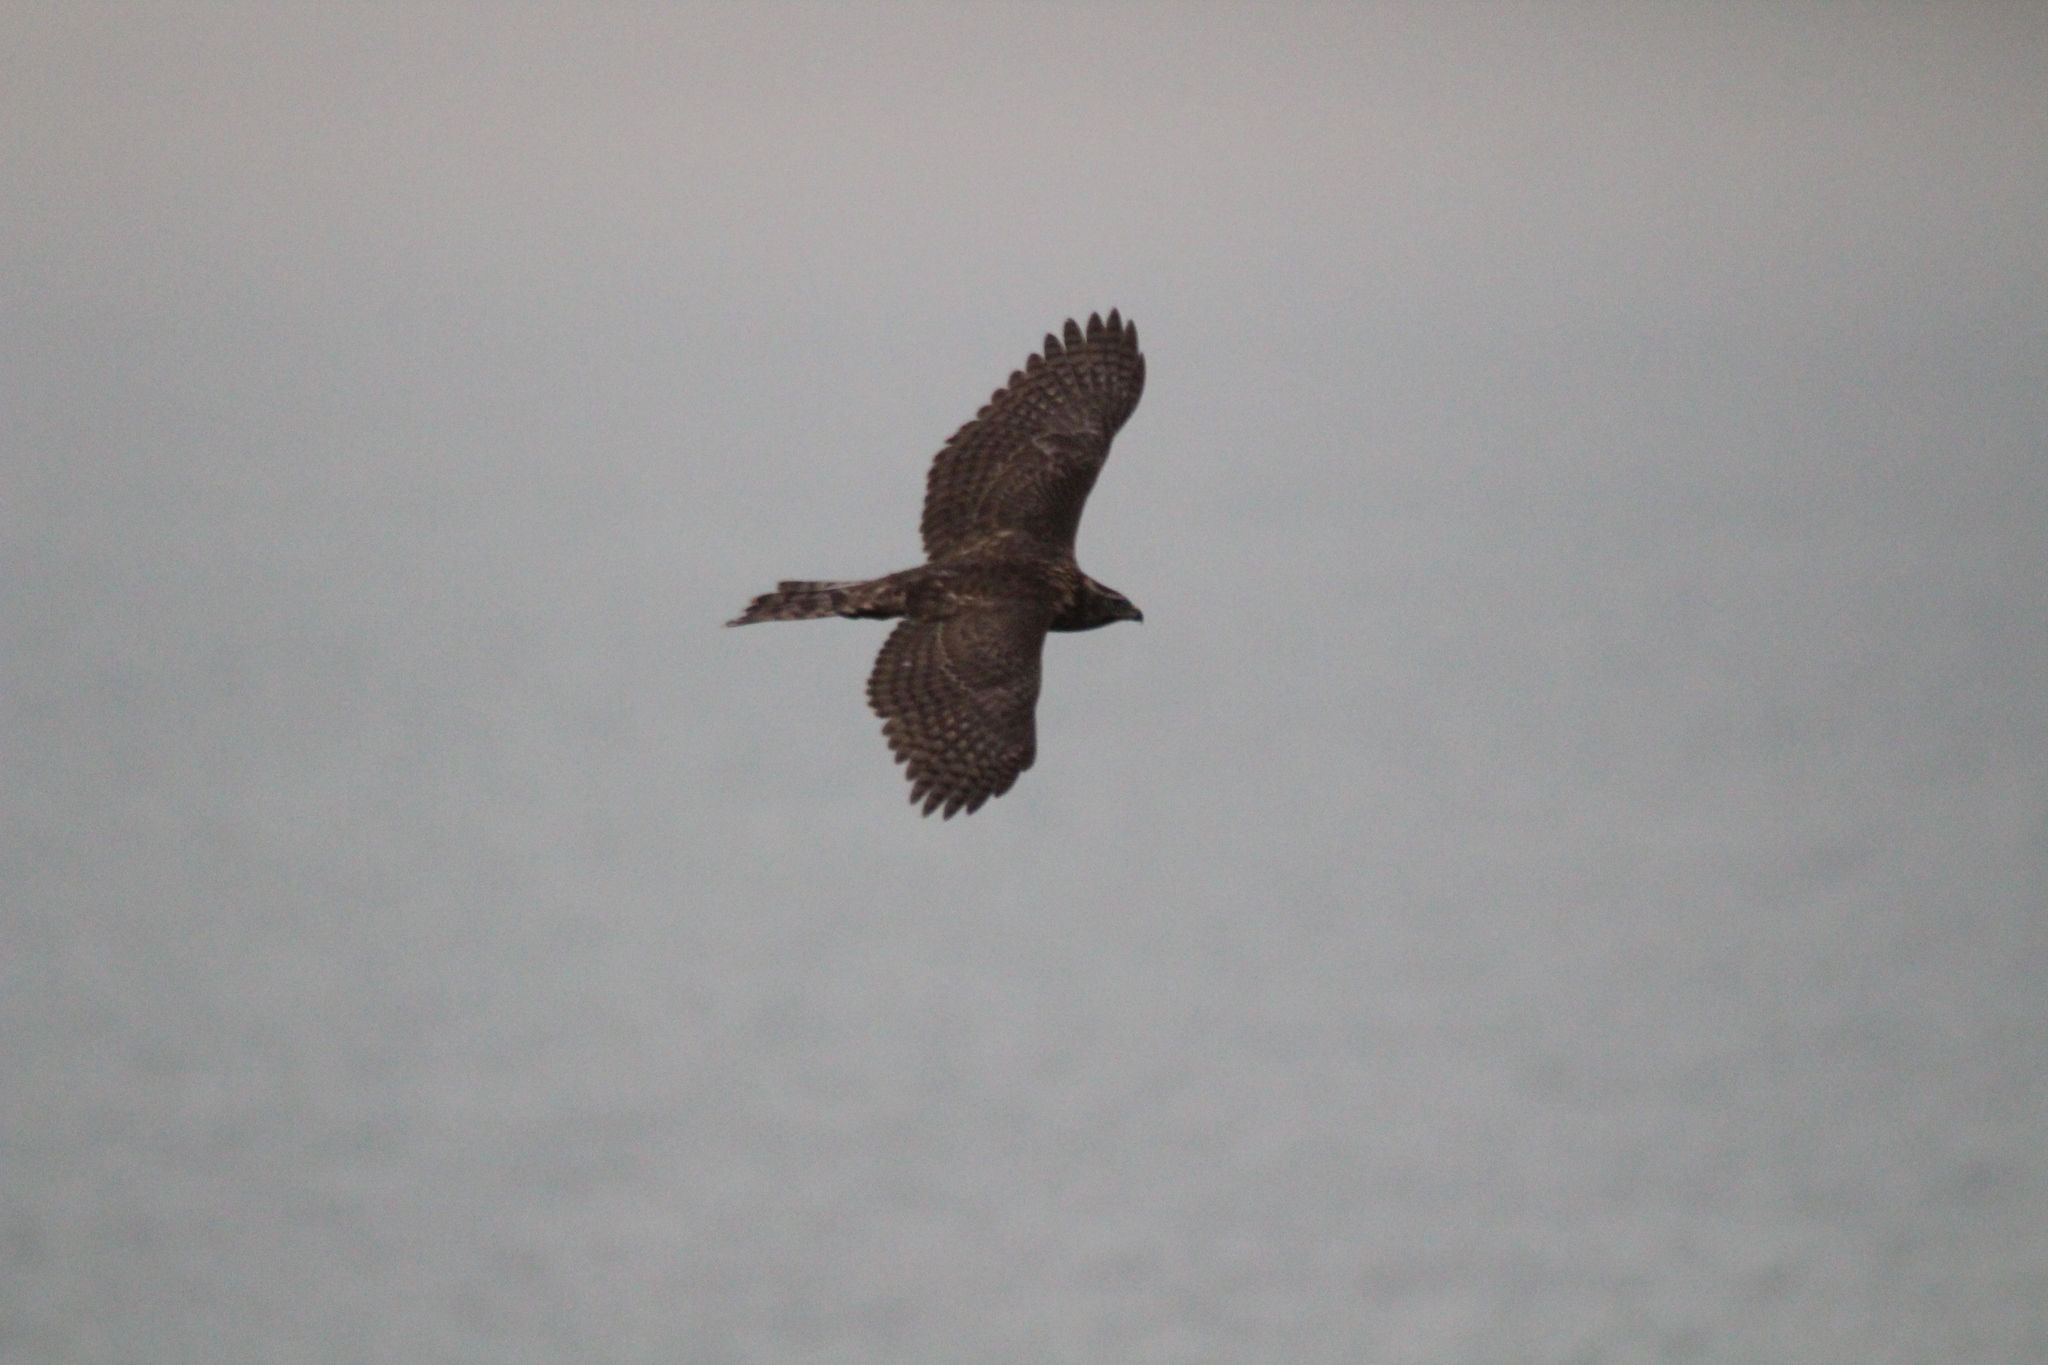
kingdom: Animalia
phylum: Chordata
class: Aves
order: Accipitriformes
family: Accipitridae
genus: Accipiter
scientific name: Accipiter gentilis
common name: Northern goshawk
